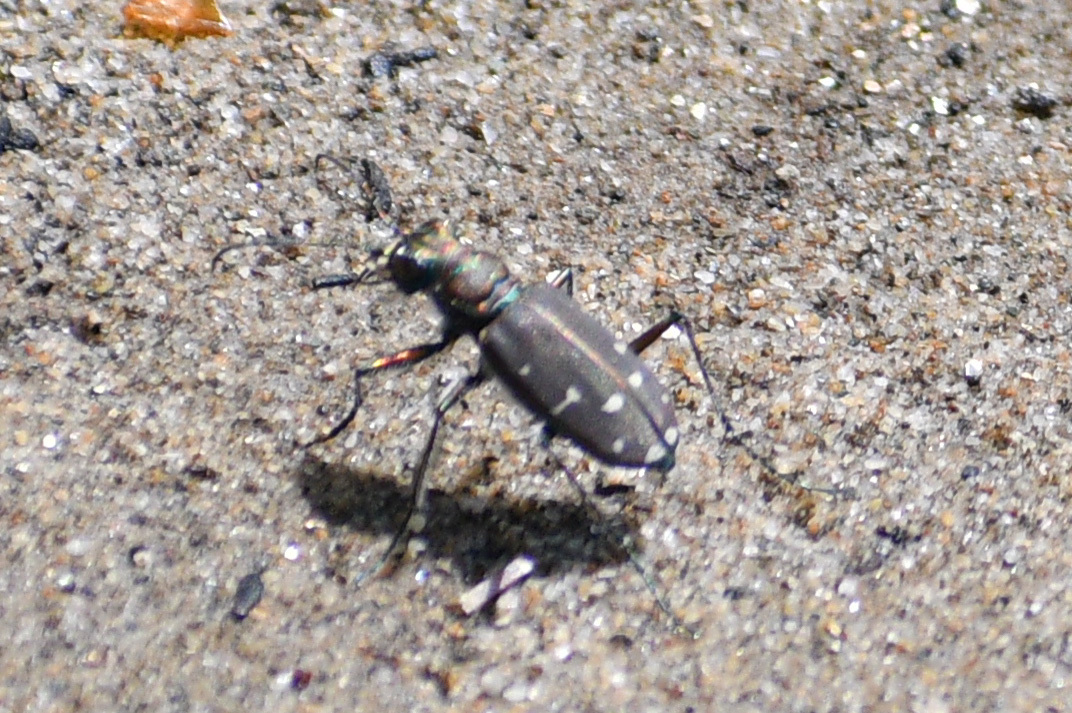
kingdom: Animalia
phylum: Arthropoda
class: Insecta
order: Coleoptera
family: Carabidae
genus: Cicindela
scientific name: Cicindela oregona
